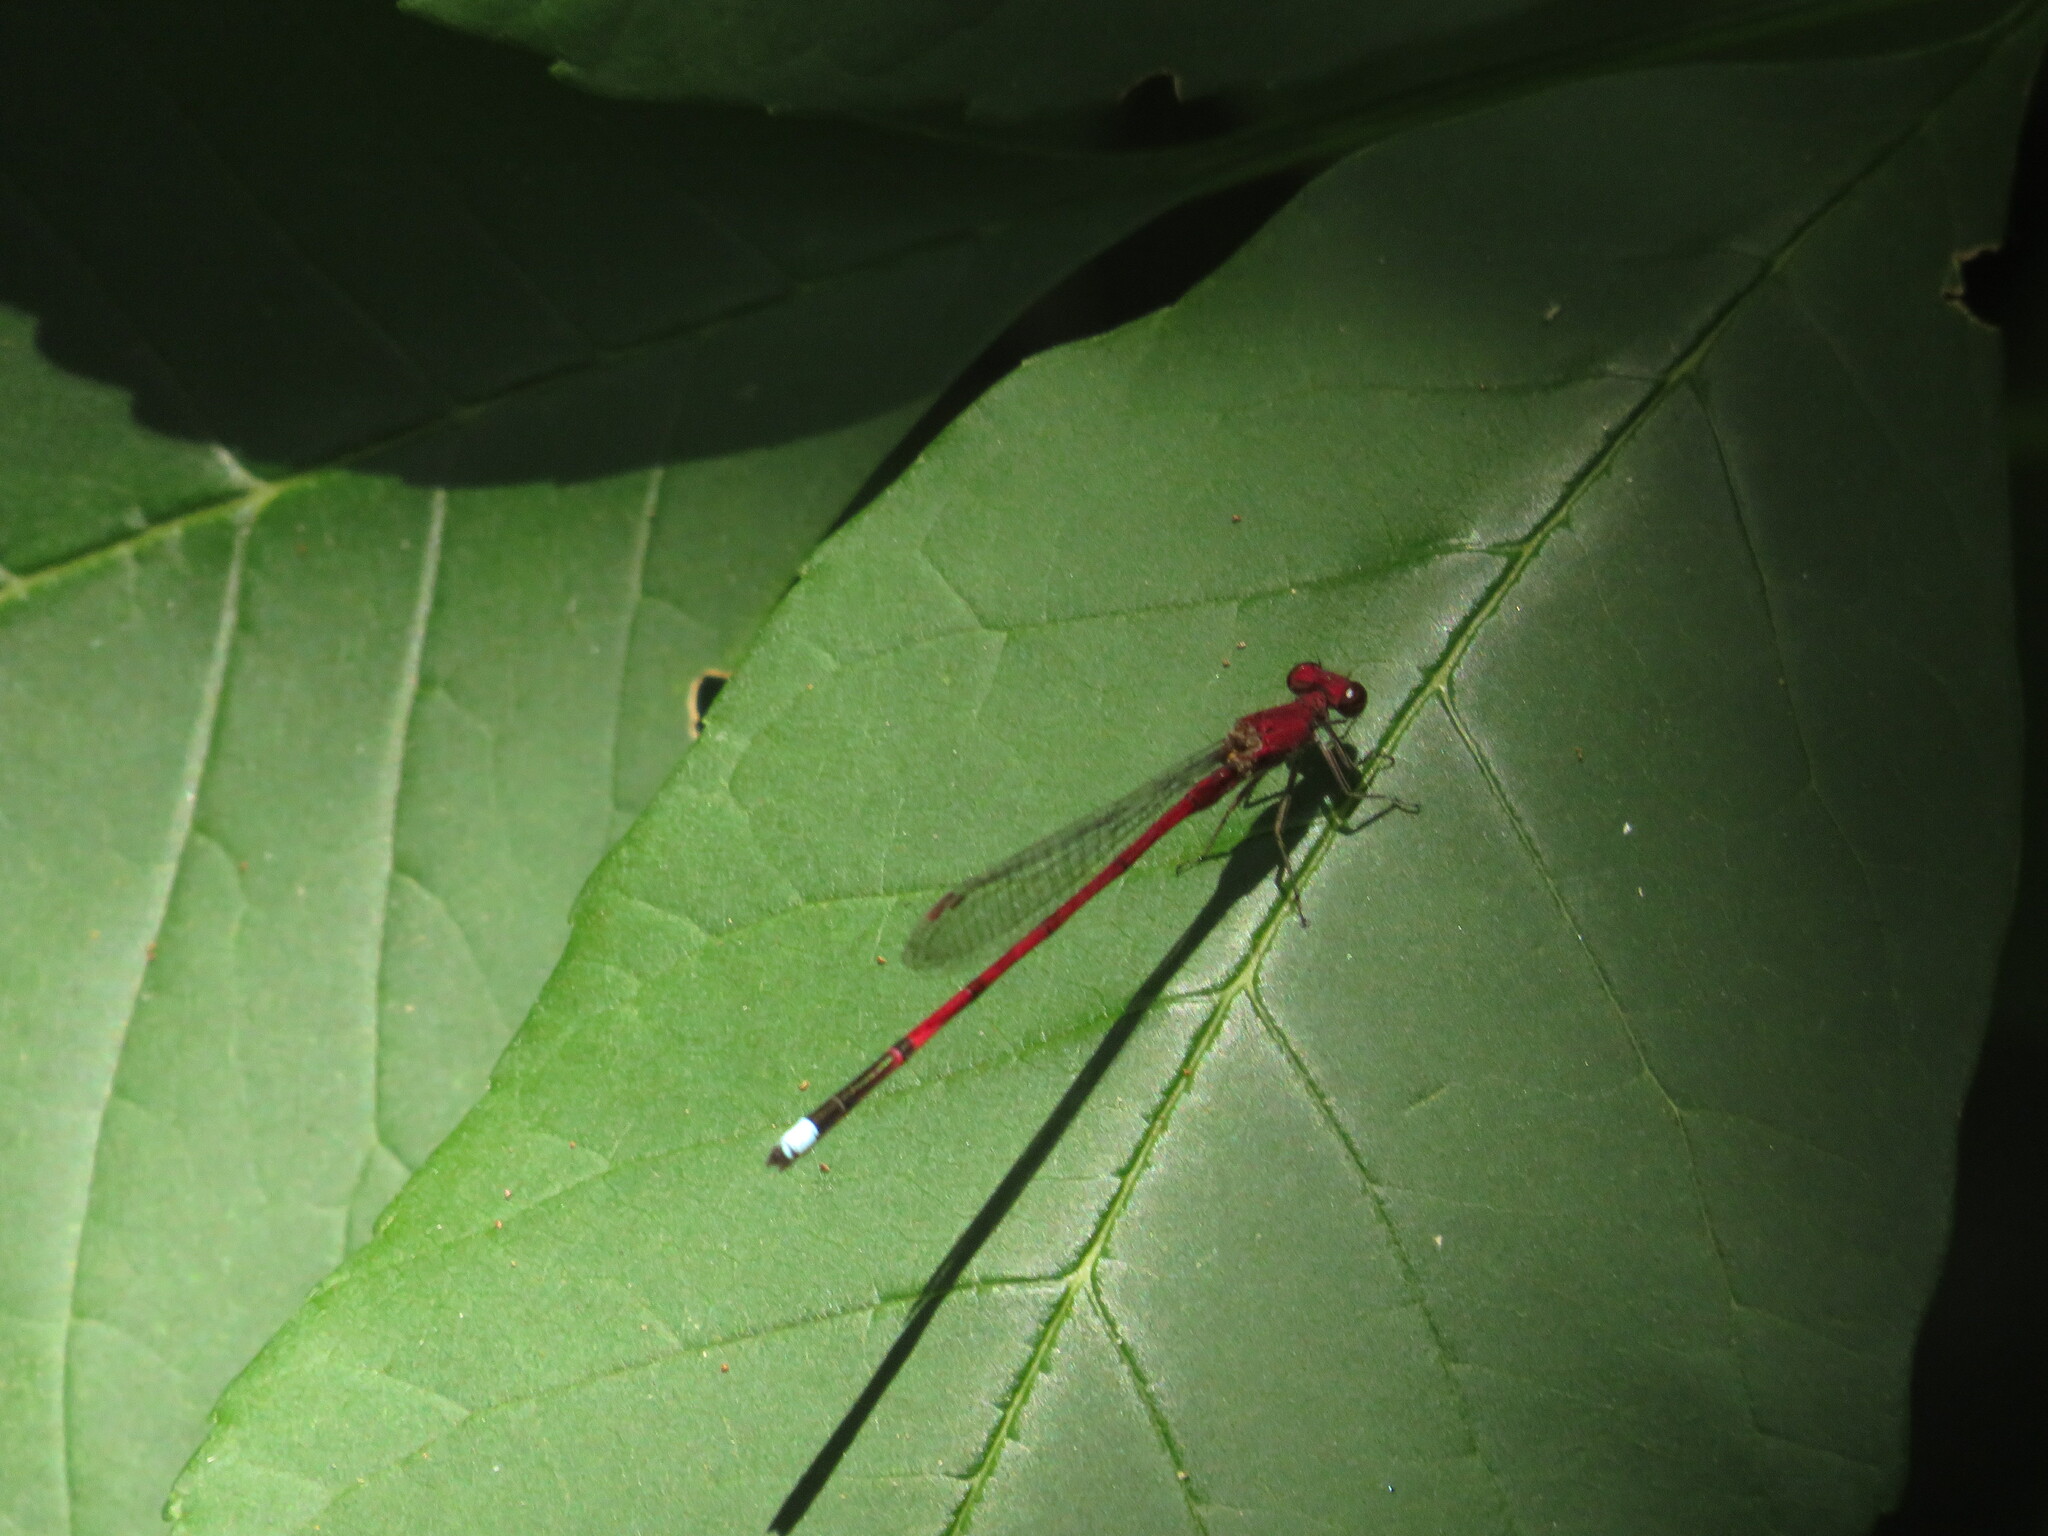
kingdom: Animalia
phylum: Arthropoda
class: Insecta
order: Odonata
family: Coenagrionidae
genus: Oxyagrion
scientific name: Oxyagrion terminale
